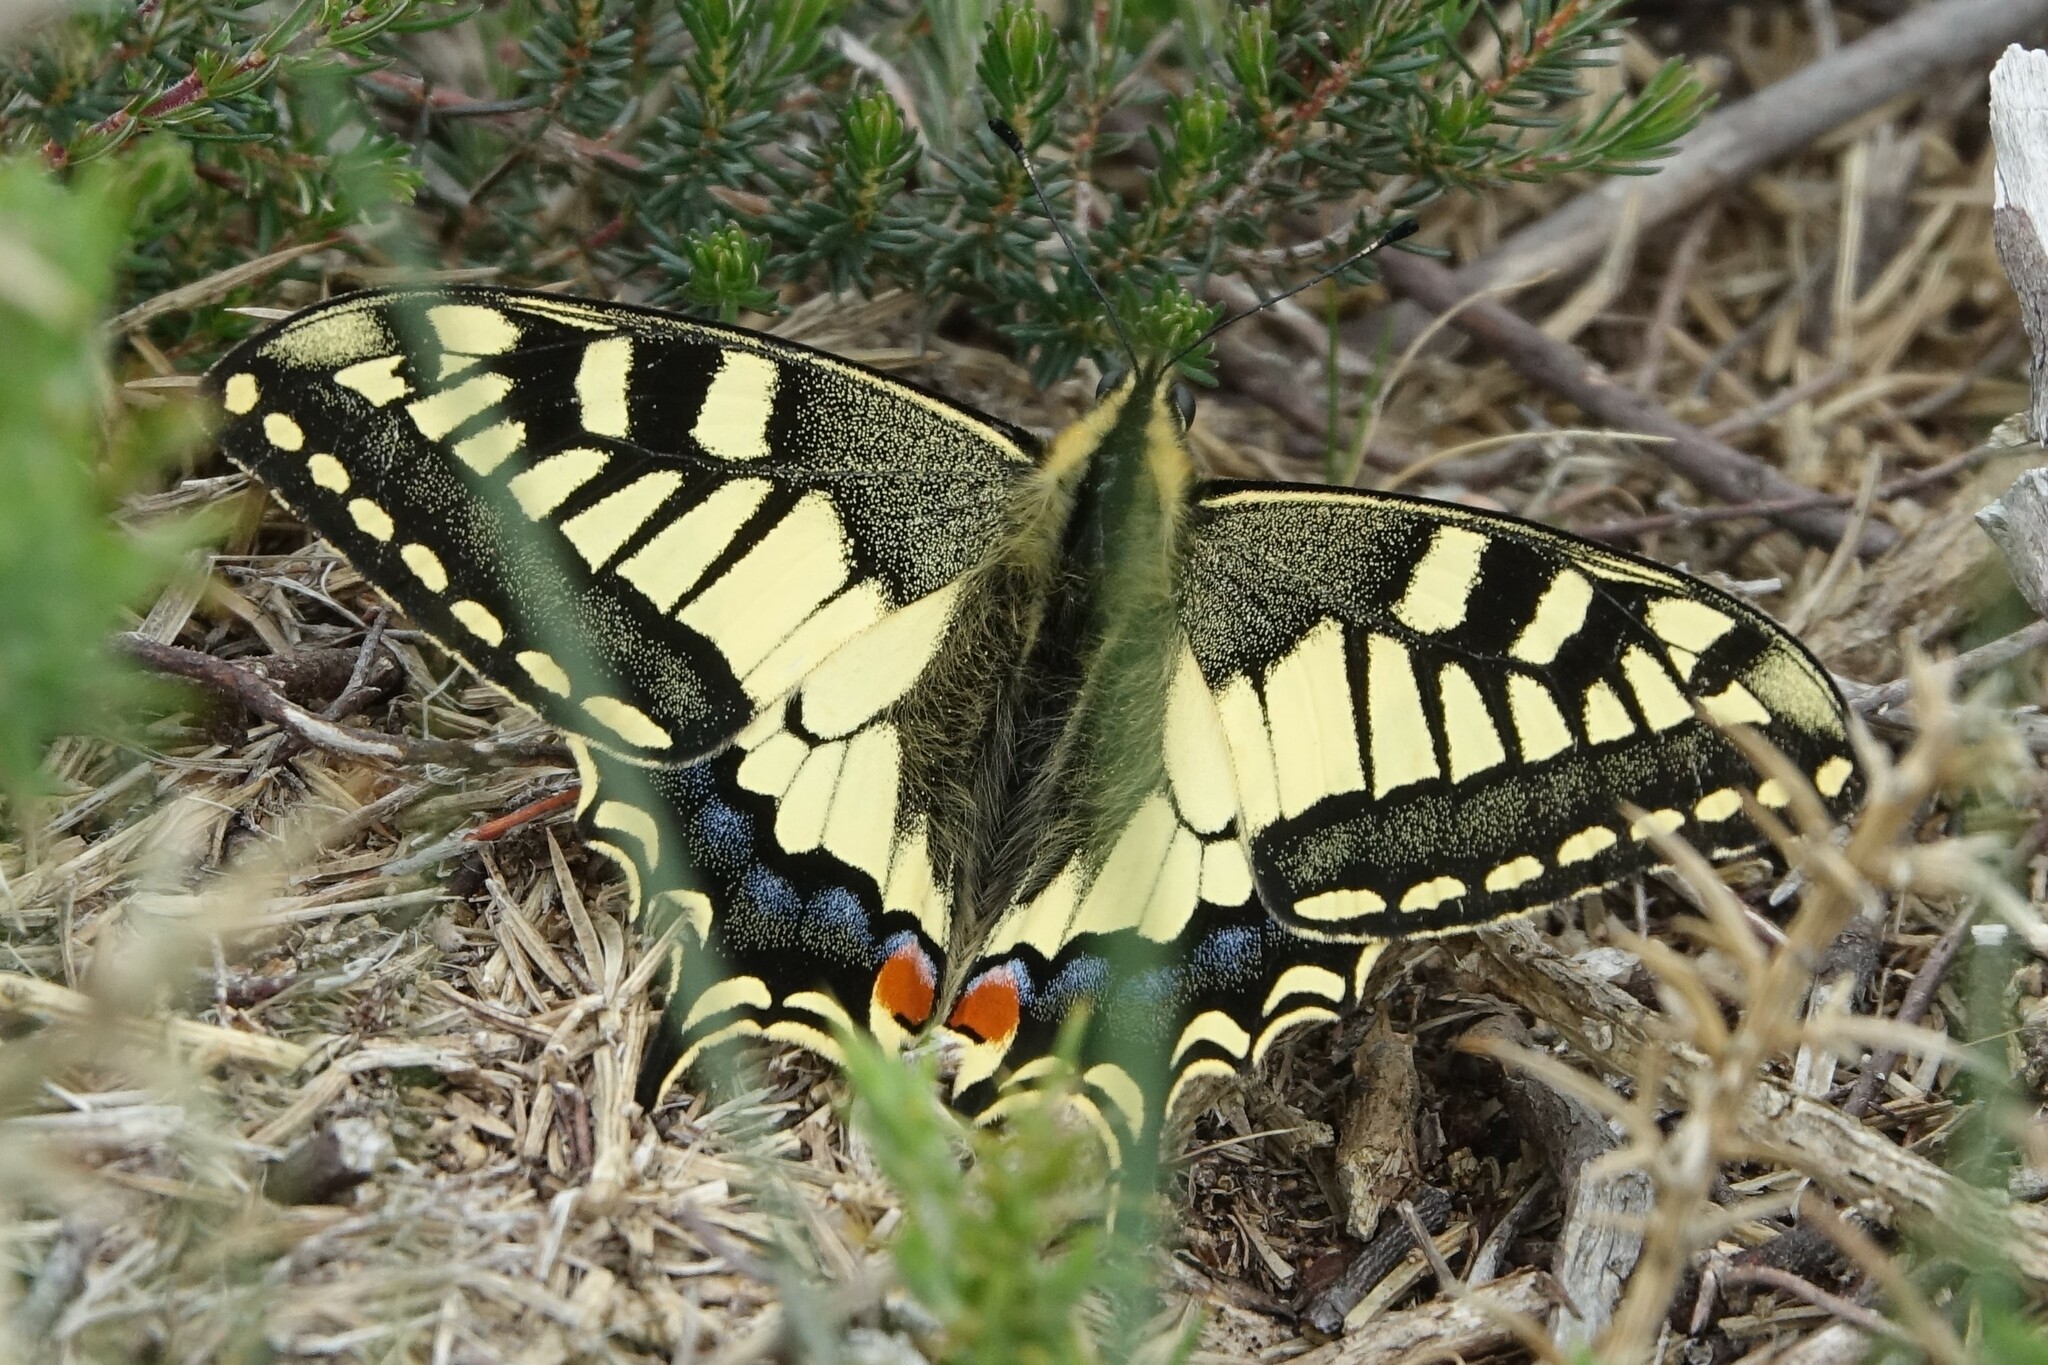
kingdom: Animalia
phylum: Arthropoda
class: Insecta
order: Lepidoptera
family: Papilionidae
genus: Papilio
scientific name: Papilio machaon
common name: Swallowtail
